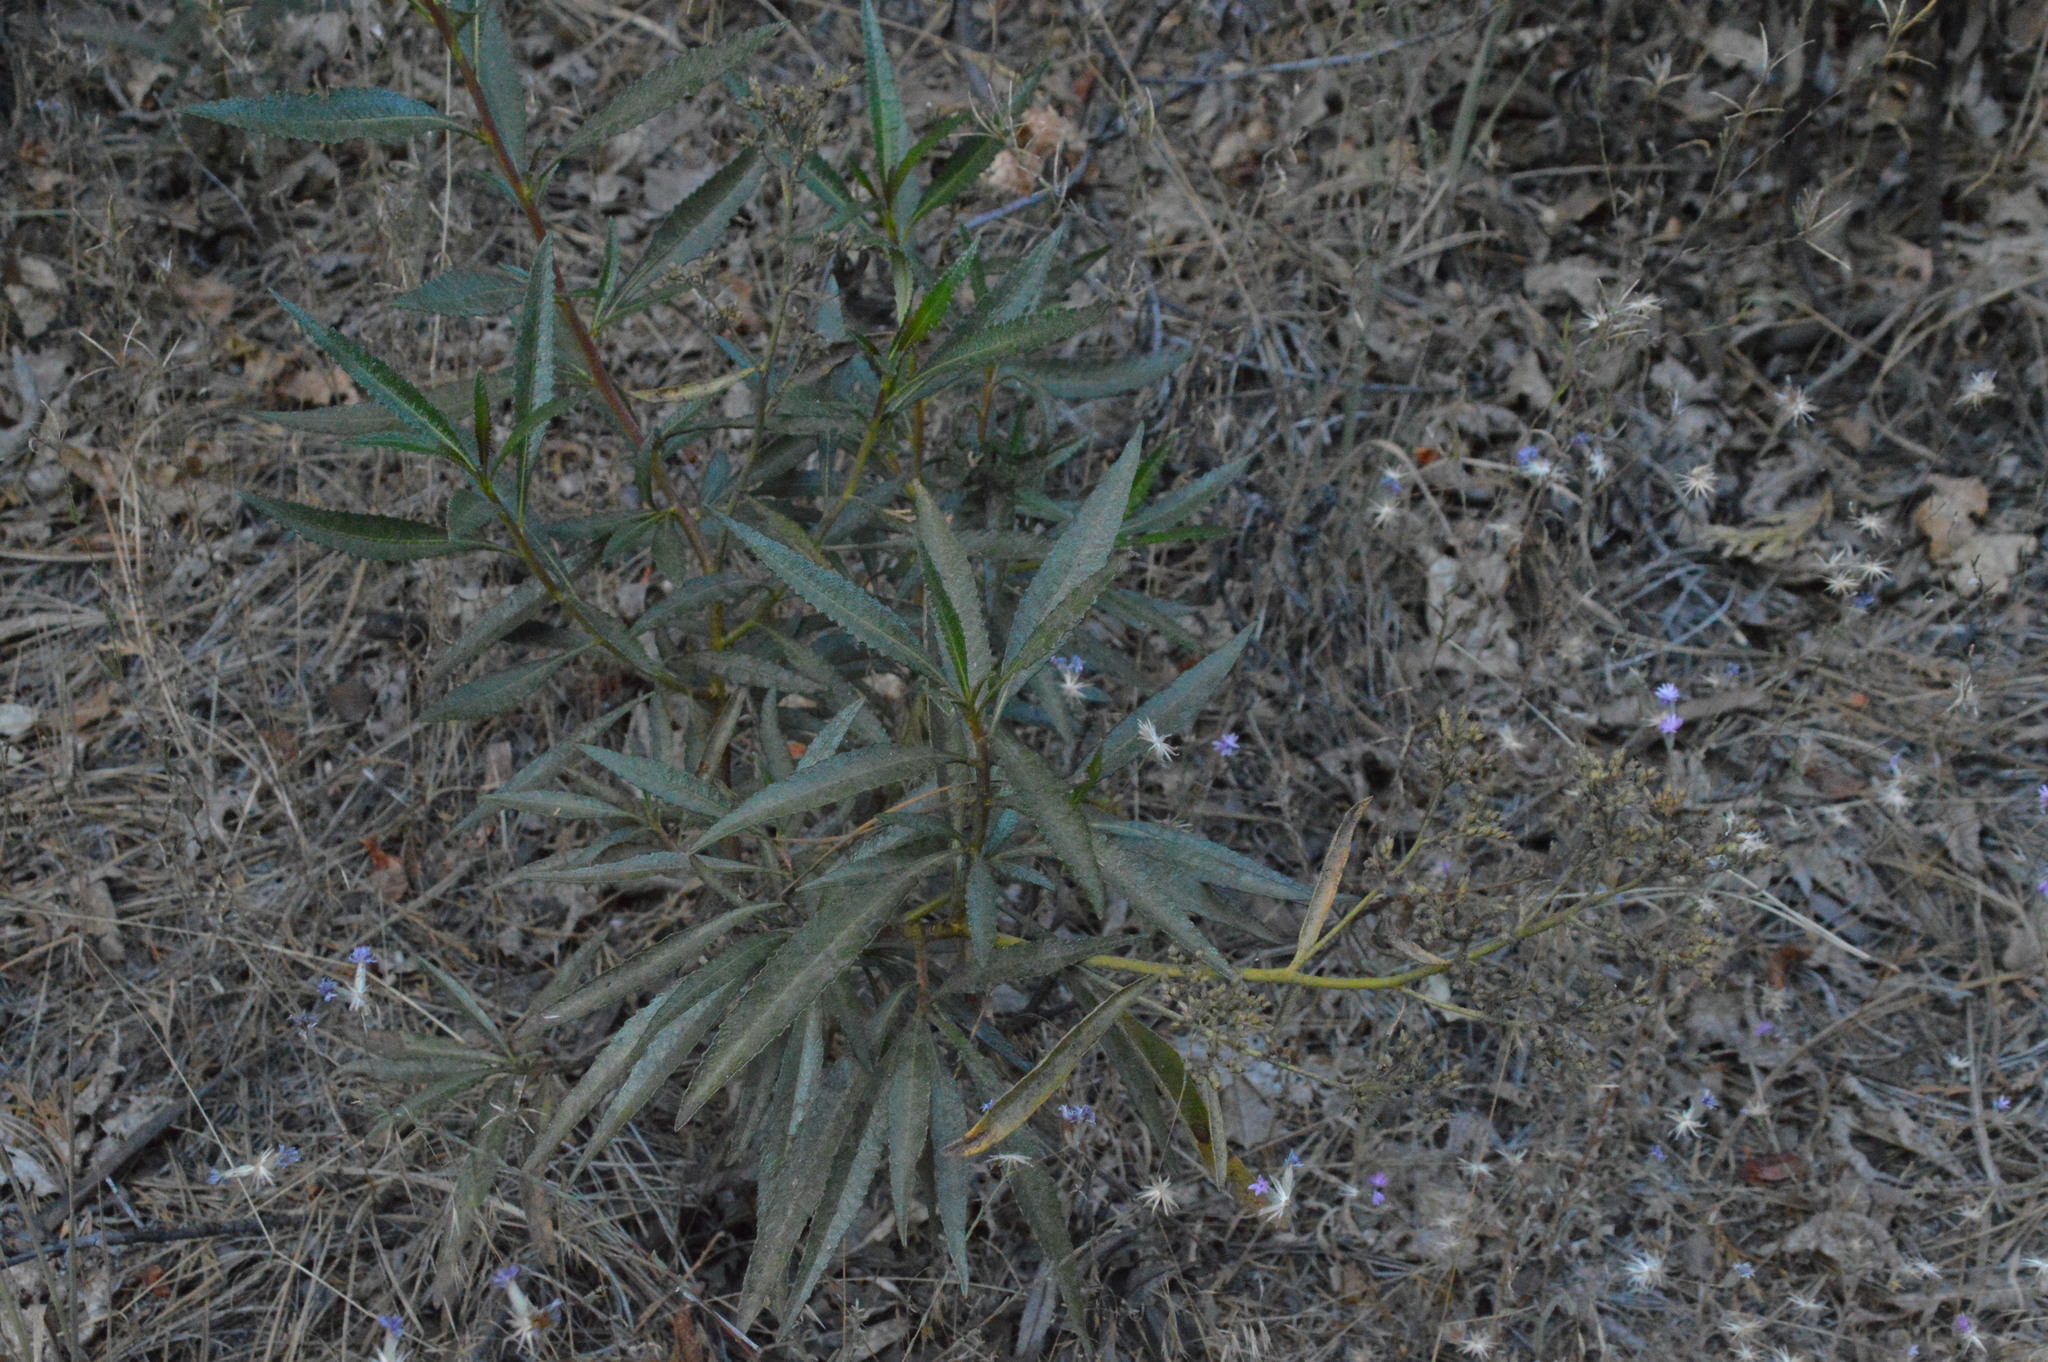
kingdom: Plantae
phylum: Tracheophyta
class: Magnoliopsida
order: Boraginales
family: Namaceae
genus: Eriodictyon
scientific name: Eriodictyon californicum
